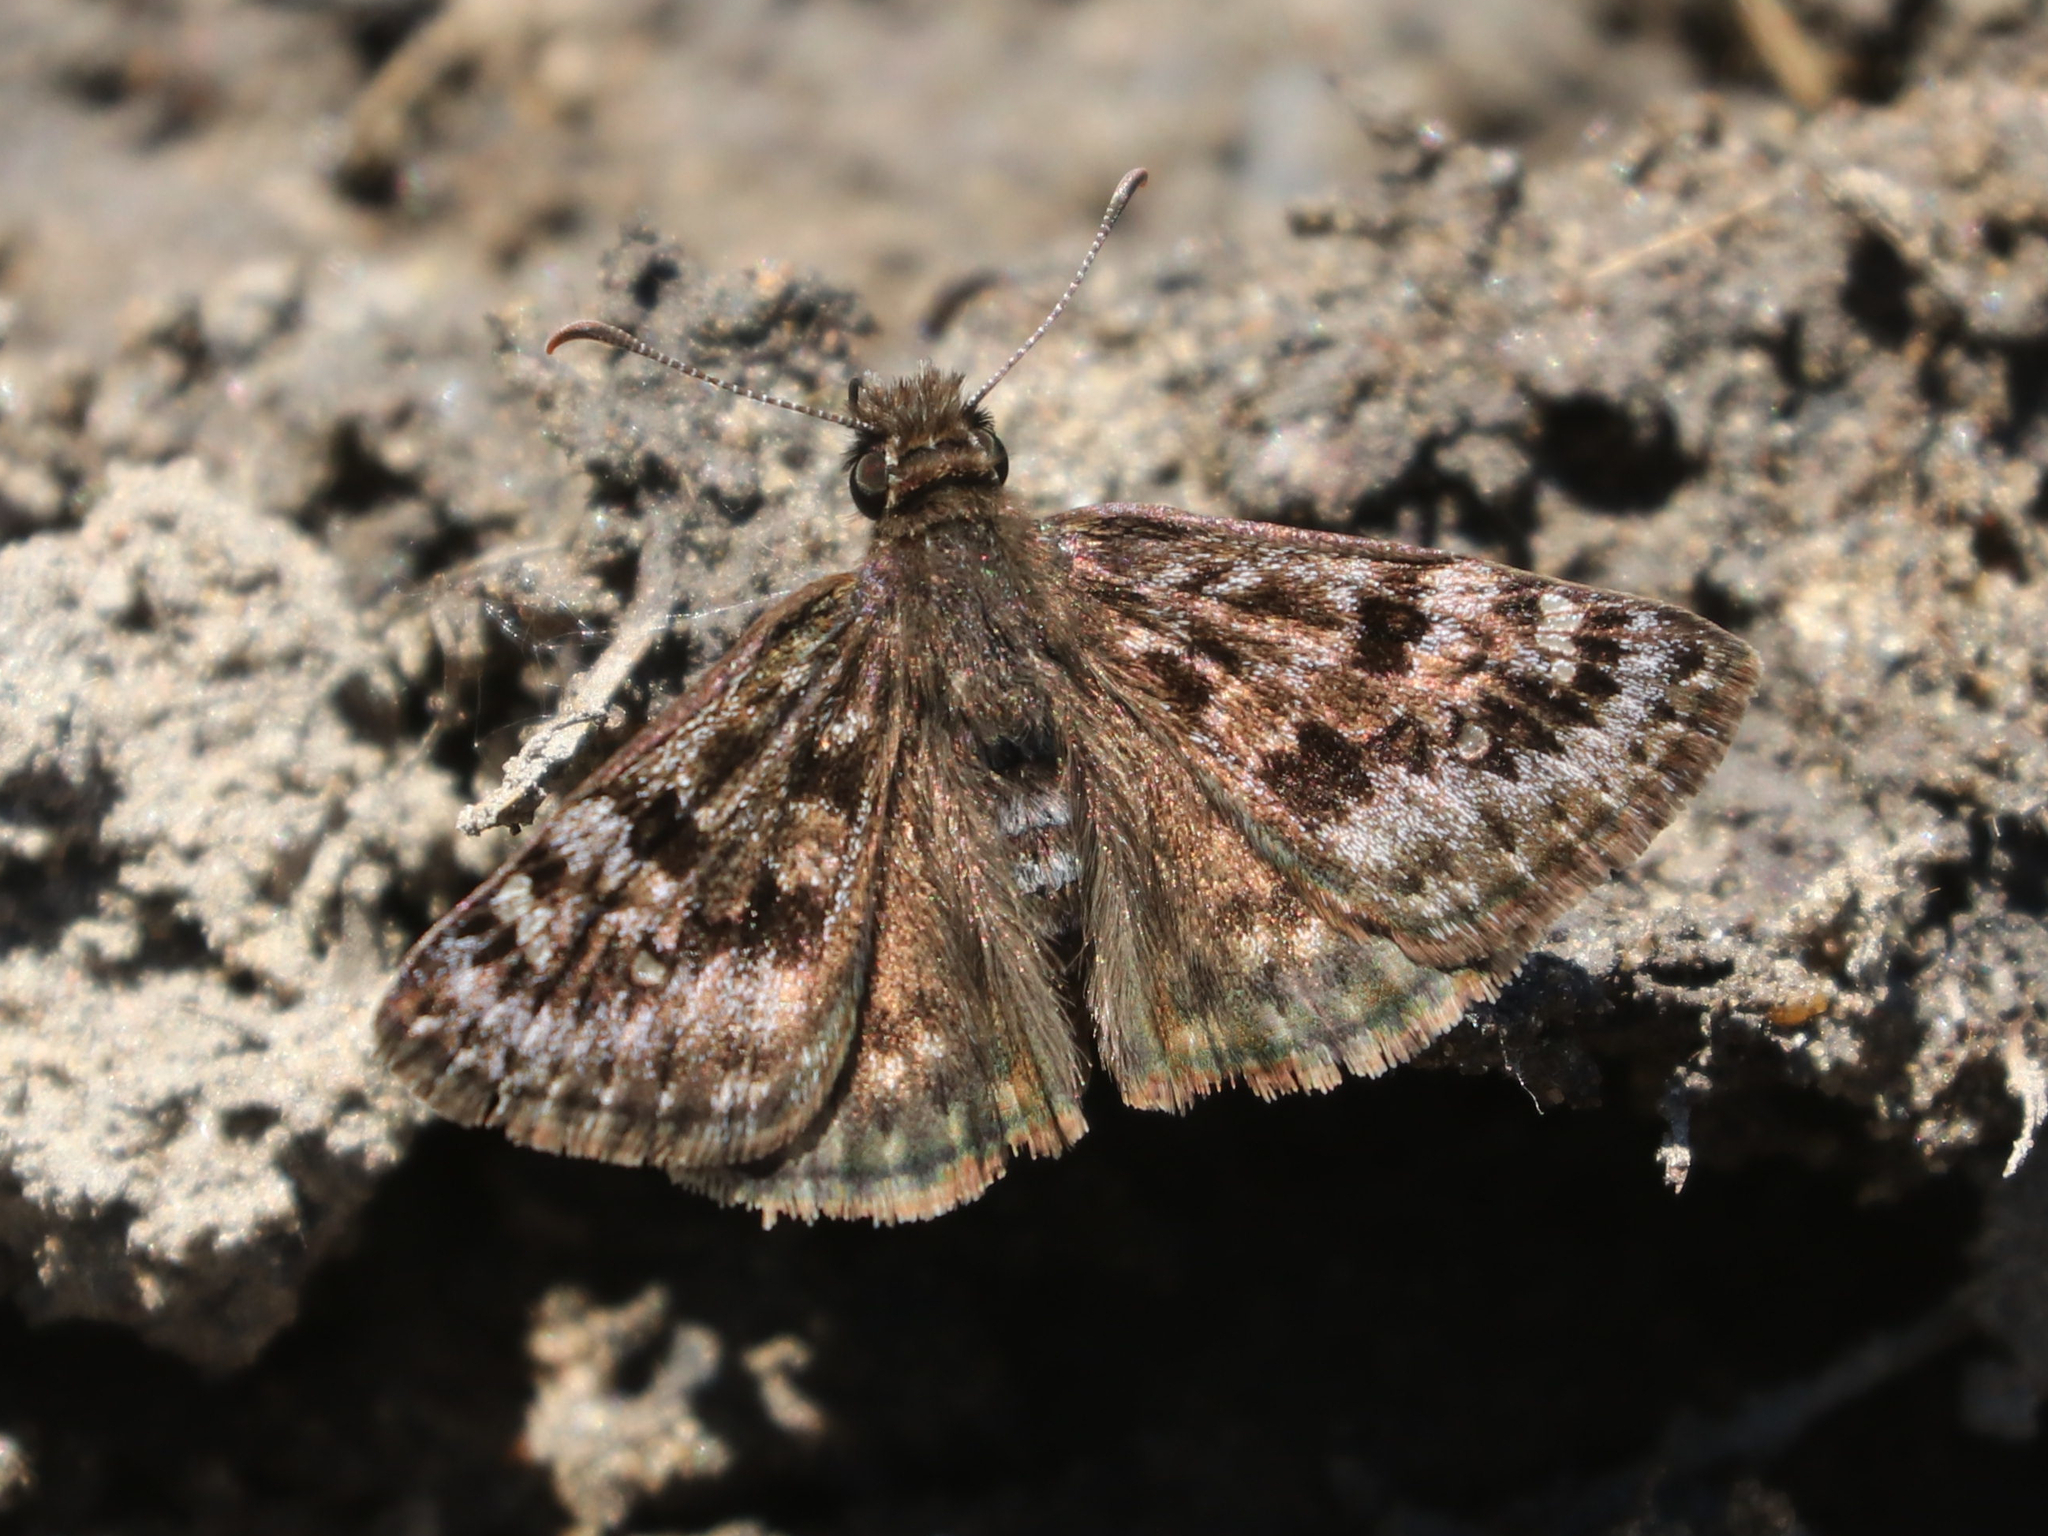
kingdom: Animalia
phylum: Arthropoda
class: Insecta
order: Lepidoptera
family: Hesperiidae
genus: Erynnis
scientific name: Erynnis martialis
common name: Mottled duskywing
